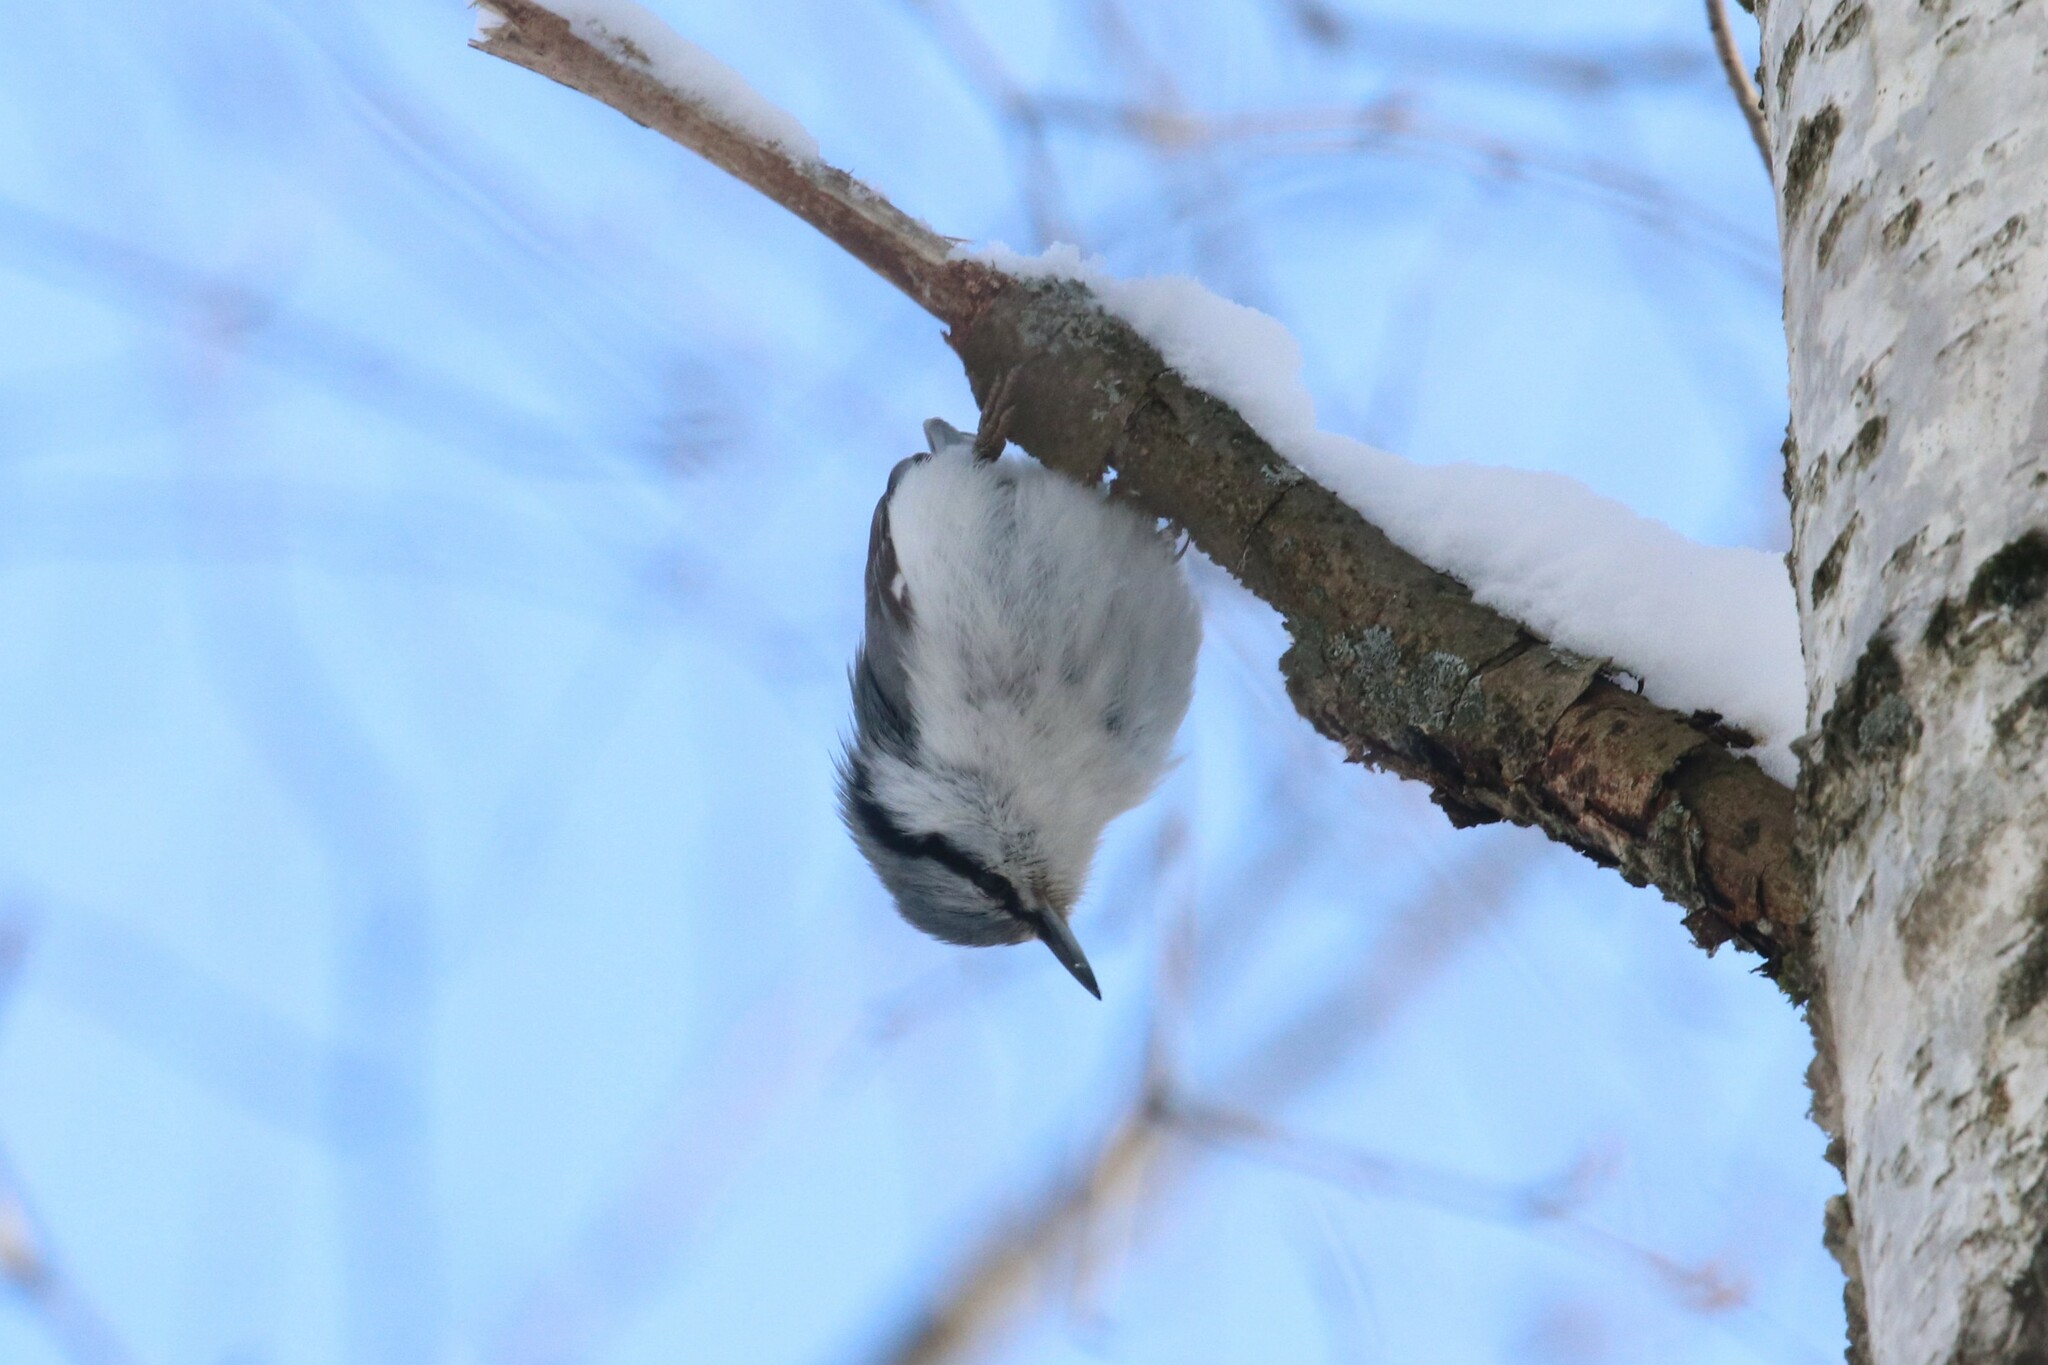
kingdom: Animalia
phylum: Chordata
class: Aves
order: Passeriformes
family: Sittidae
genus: Sitta
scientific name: Sitta europaea
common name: Eurasian nuthatch
